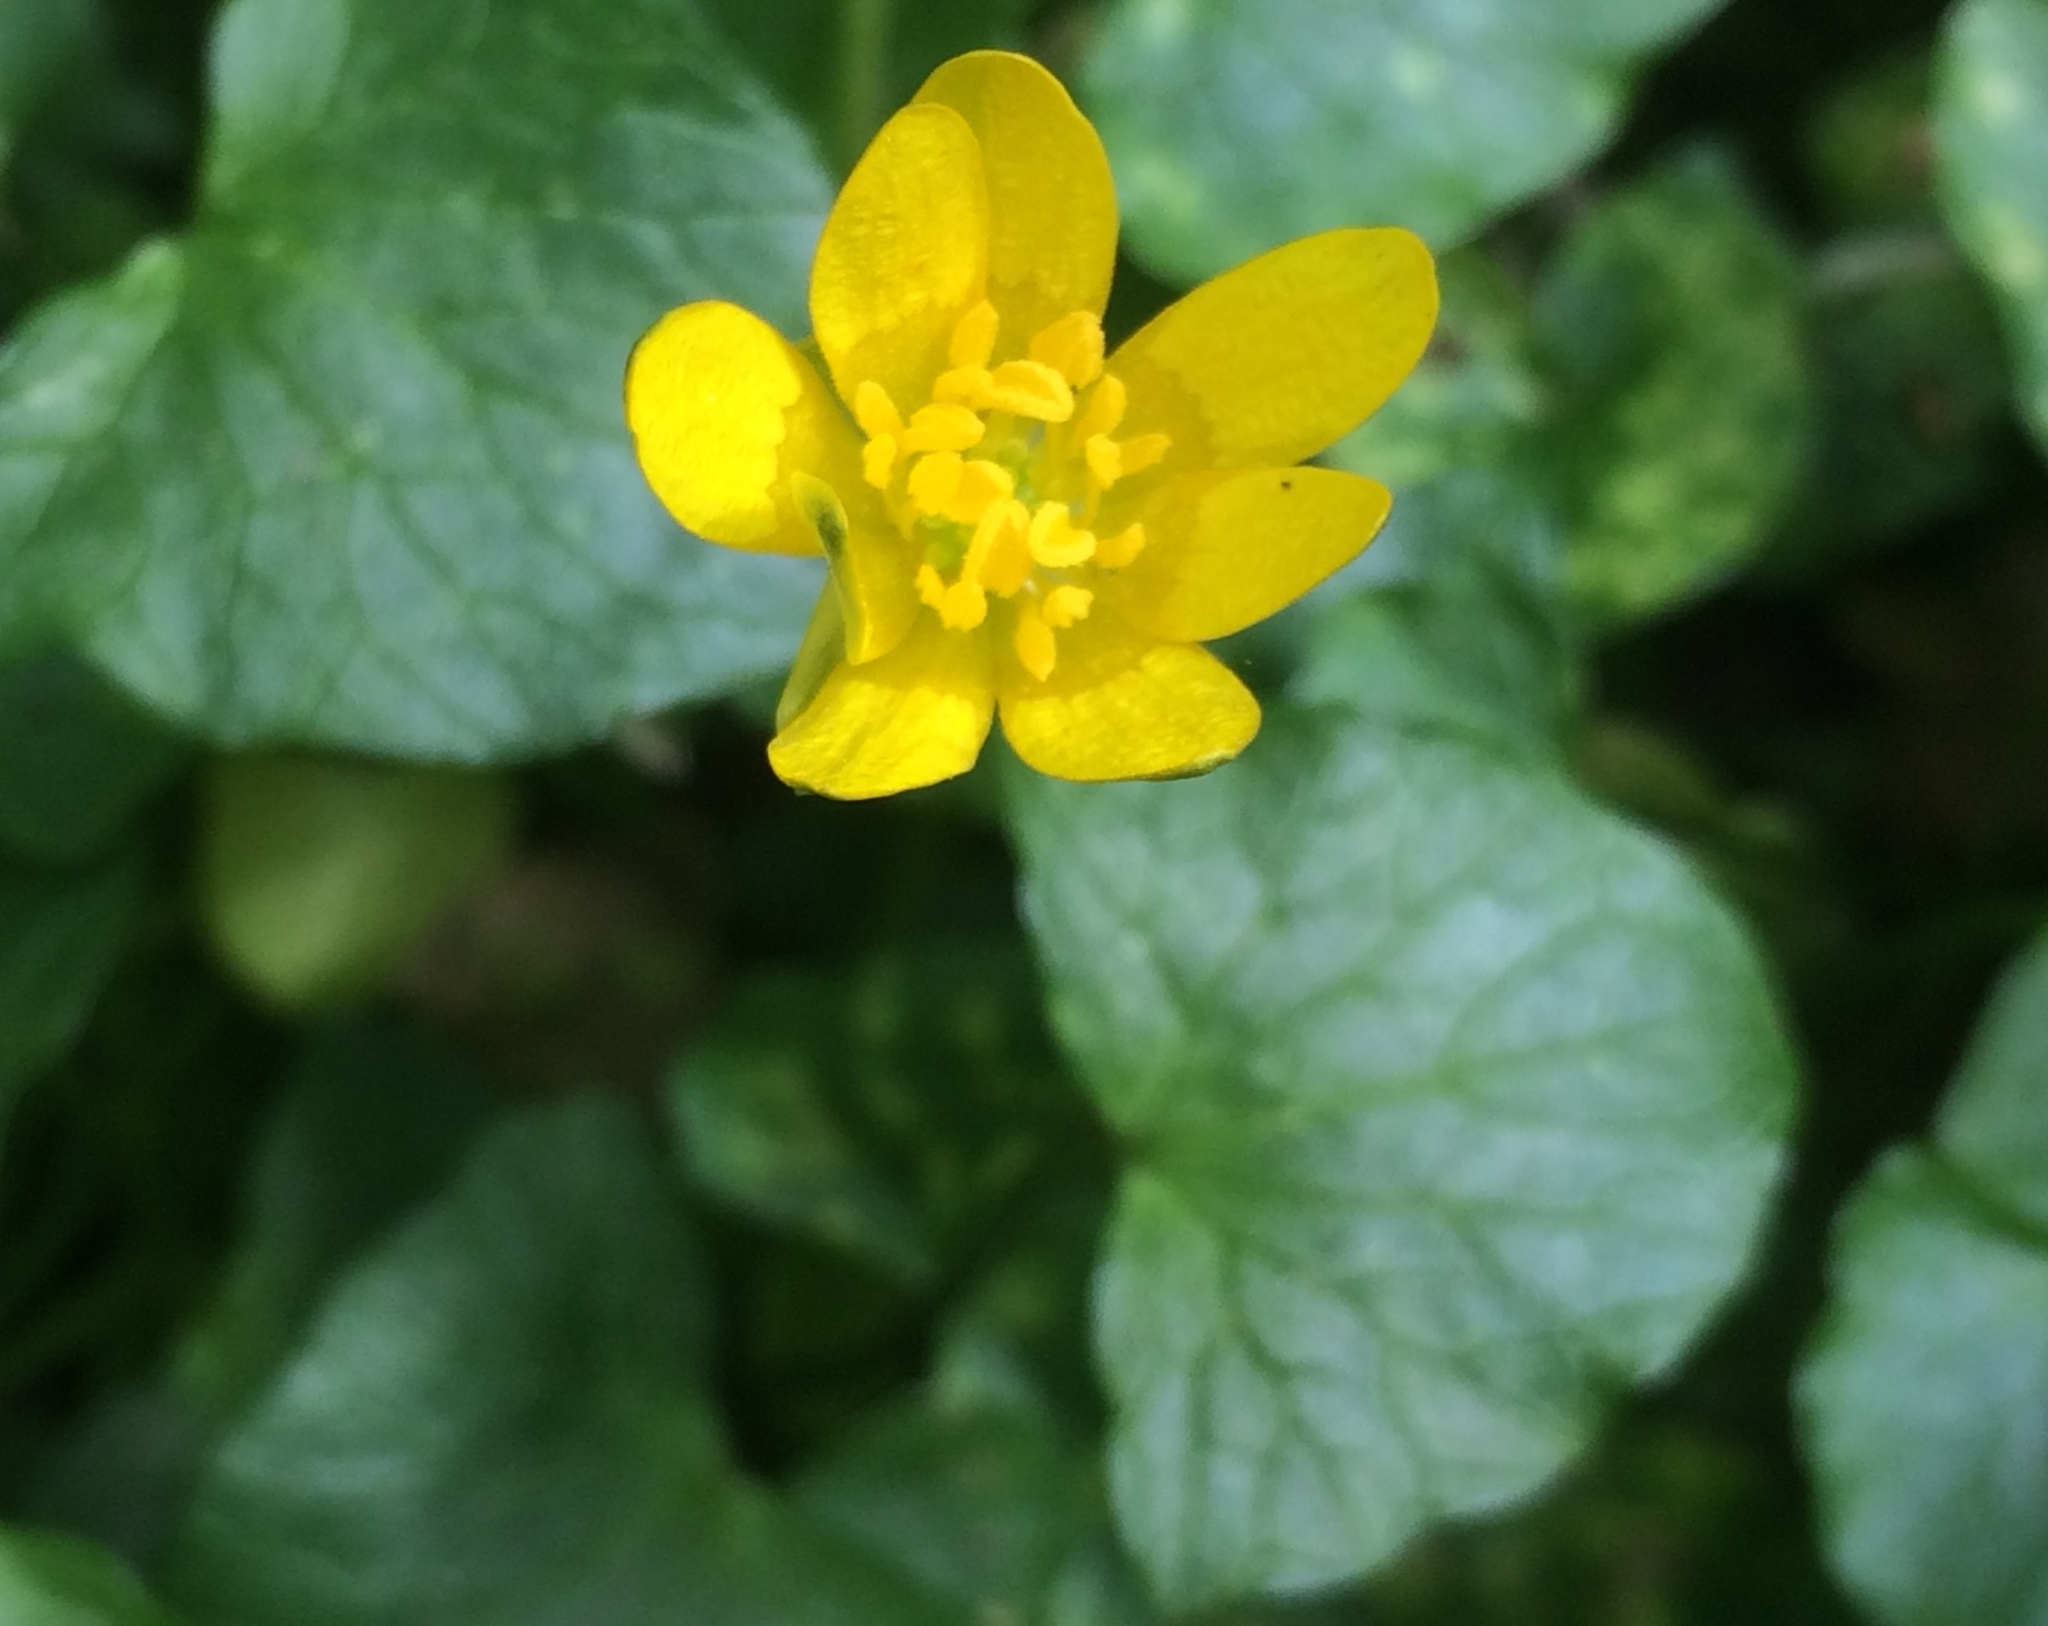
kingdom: Plantae
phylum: Tracheophyta
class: Magnoliopsida
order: Ranunculales
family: Ranunculaceae
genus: Ficaria
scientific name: Ficaria verna
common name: Lesser celandine
